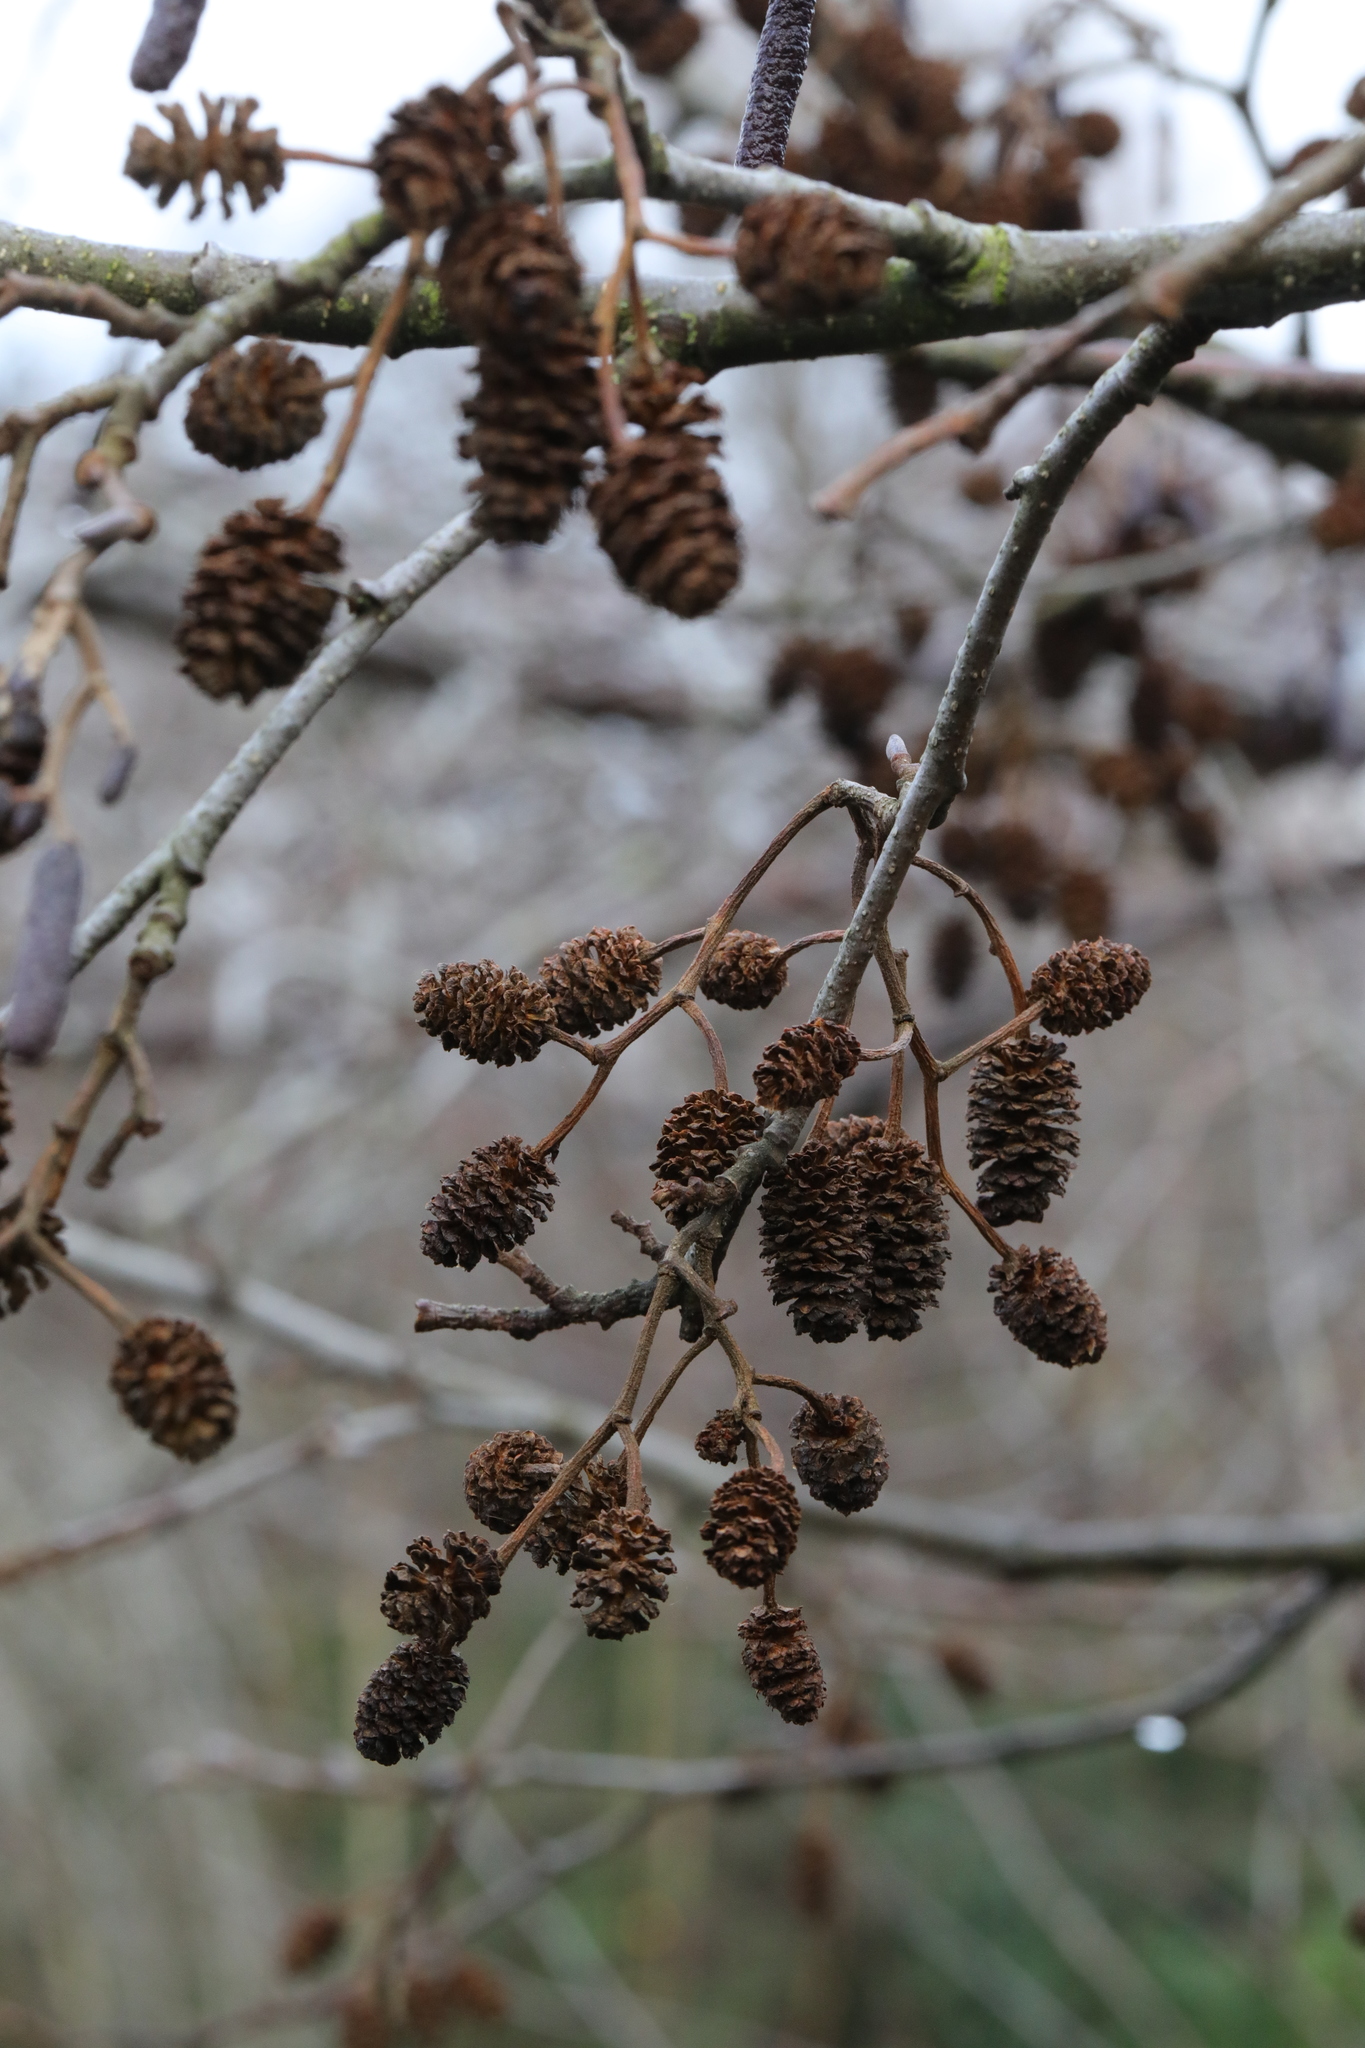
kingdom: Plantae
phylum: Tracheophyta
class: Magnoliopsida
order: Fagales
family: Betulaceae
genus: Alnus
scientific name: Alnus glutinosa
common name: Black alder
